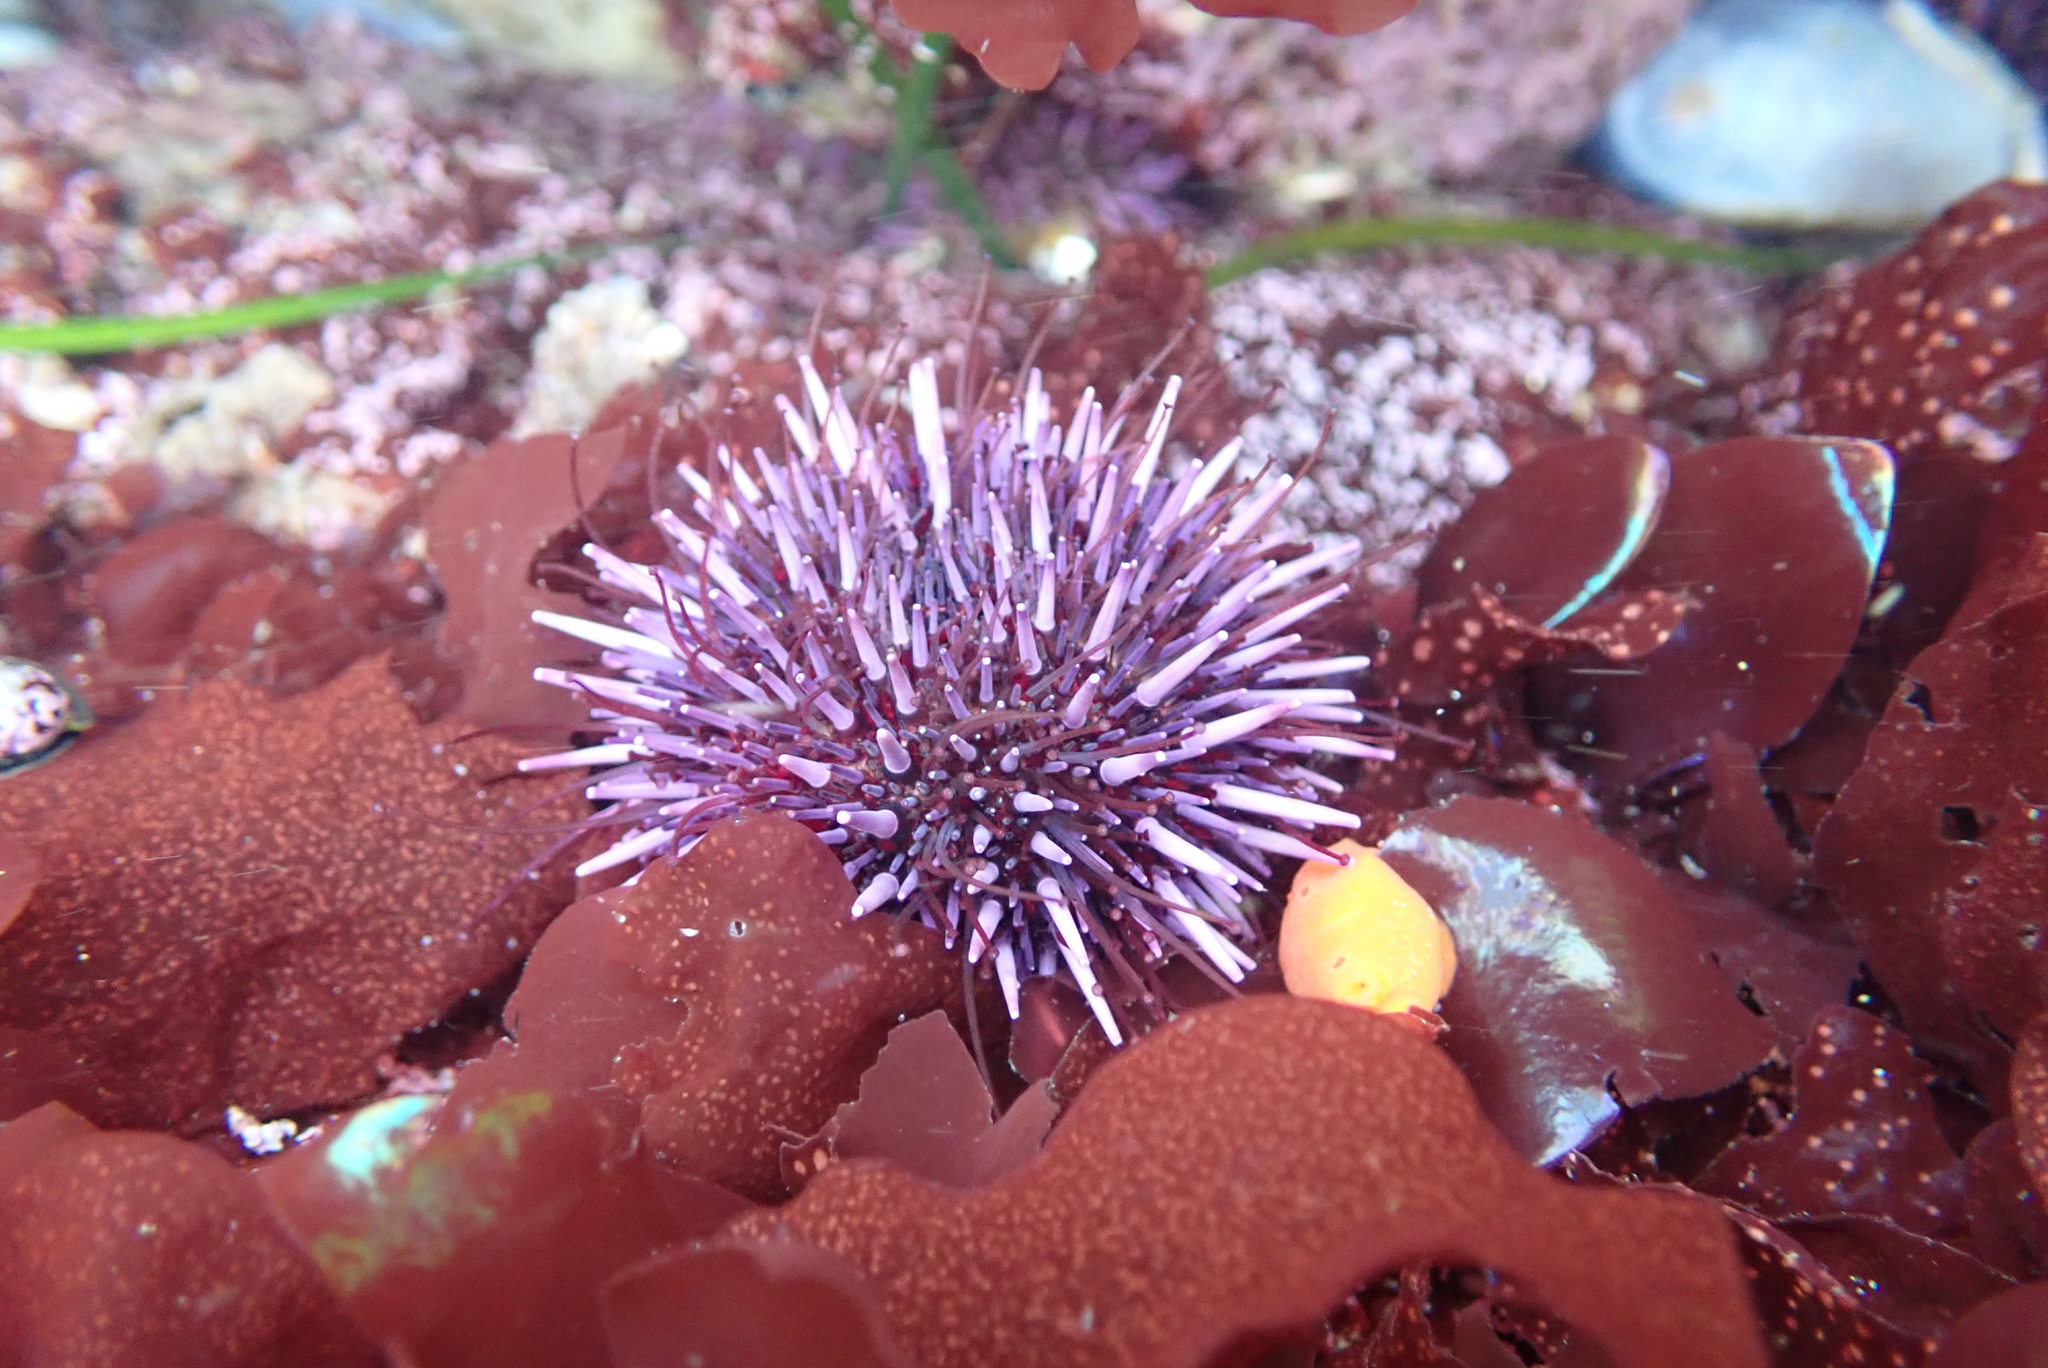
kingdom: Animalia
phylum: Echinodermata
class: Echinoidea
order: Camarodonta
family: Strongylocentrotidae
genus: Strongylocentrotus
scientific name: Strongylocentrotus purpuratus
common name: Purple sea urchin
